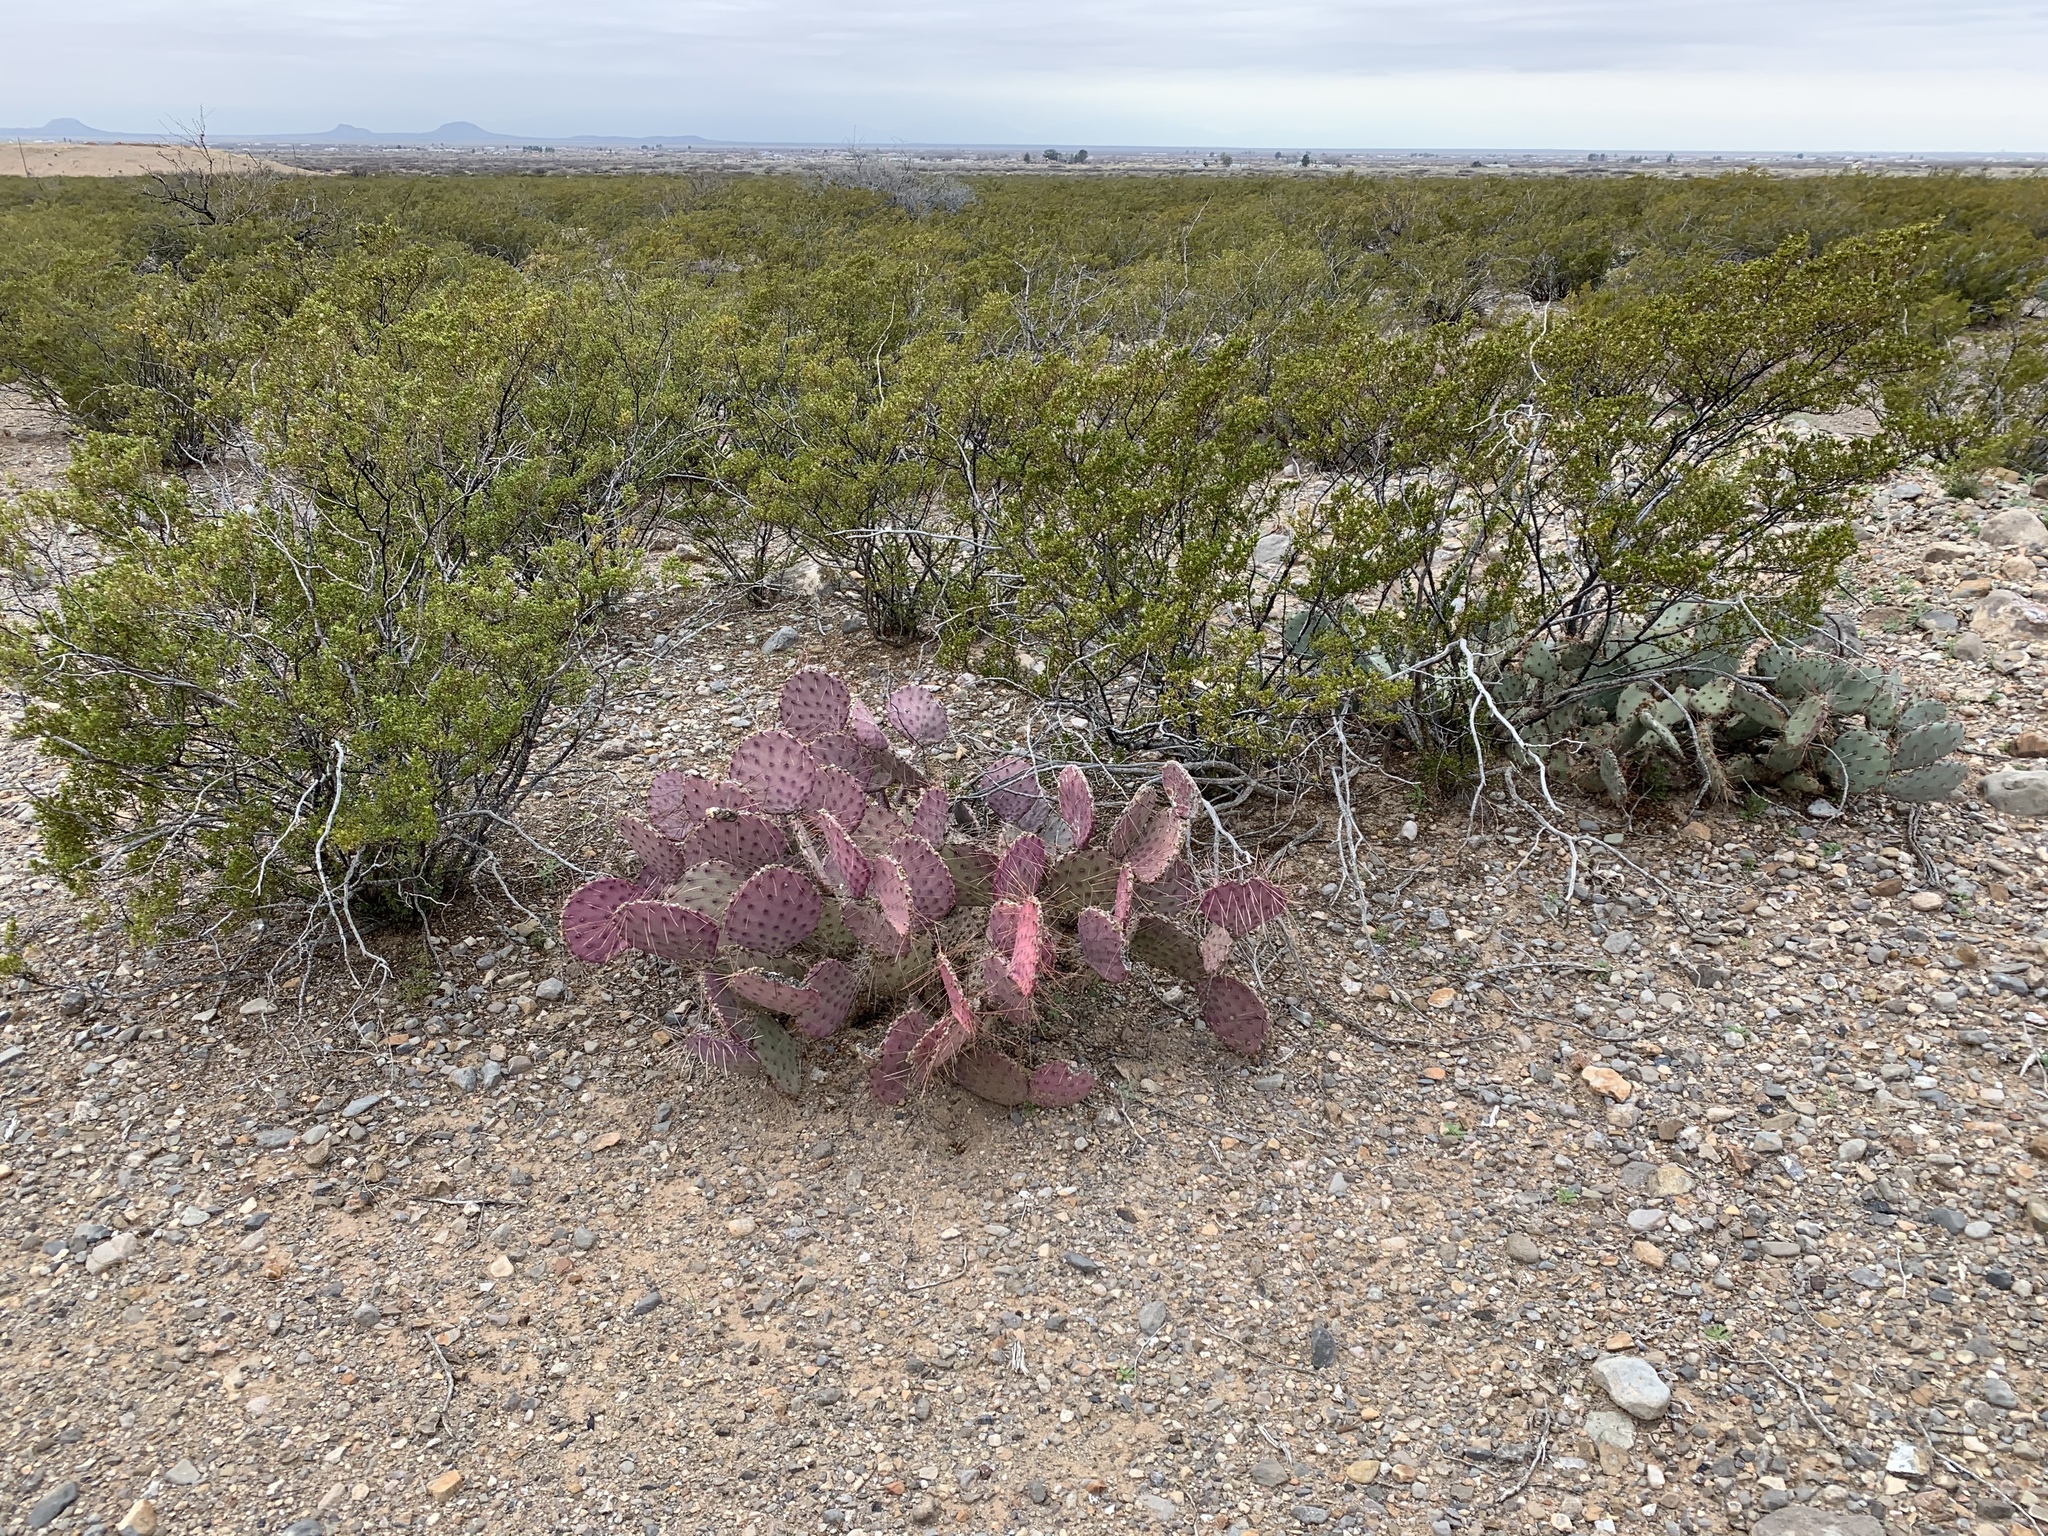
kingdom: Plantae
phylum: Tracheophyta
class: Magnoliopsida
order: Caryophyllales
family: Cactaceae
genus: Opuntia
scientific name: Opuntia macrocentra
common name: Purple prickly-pear
